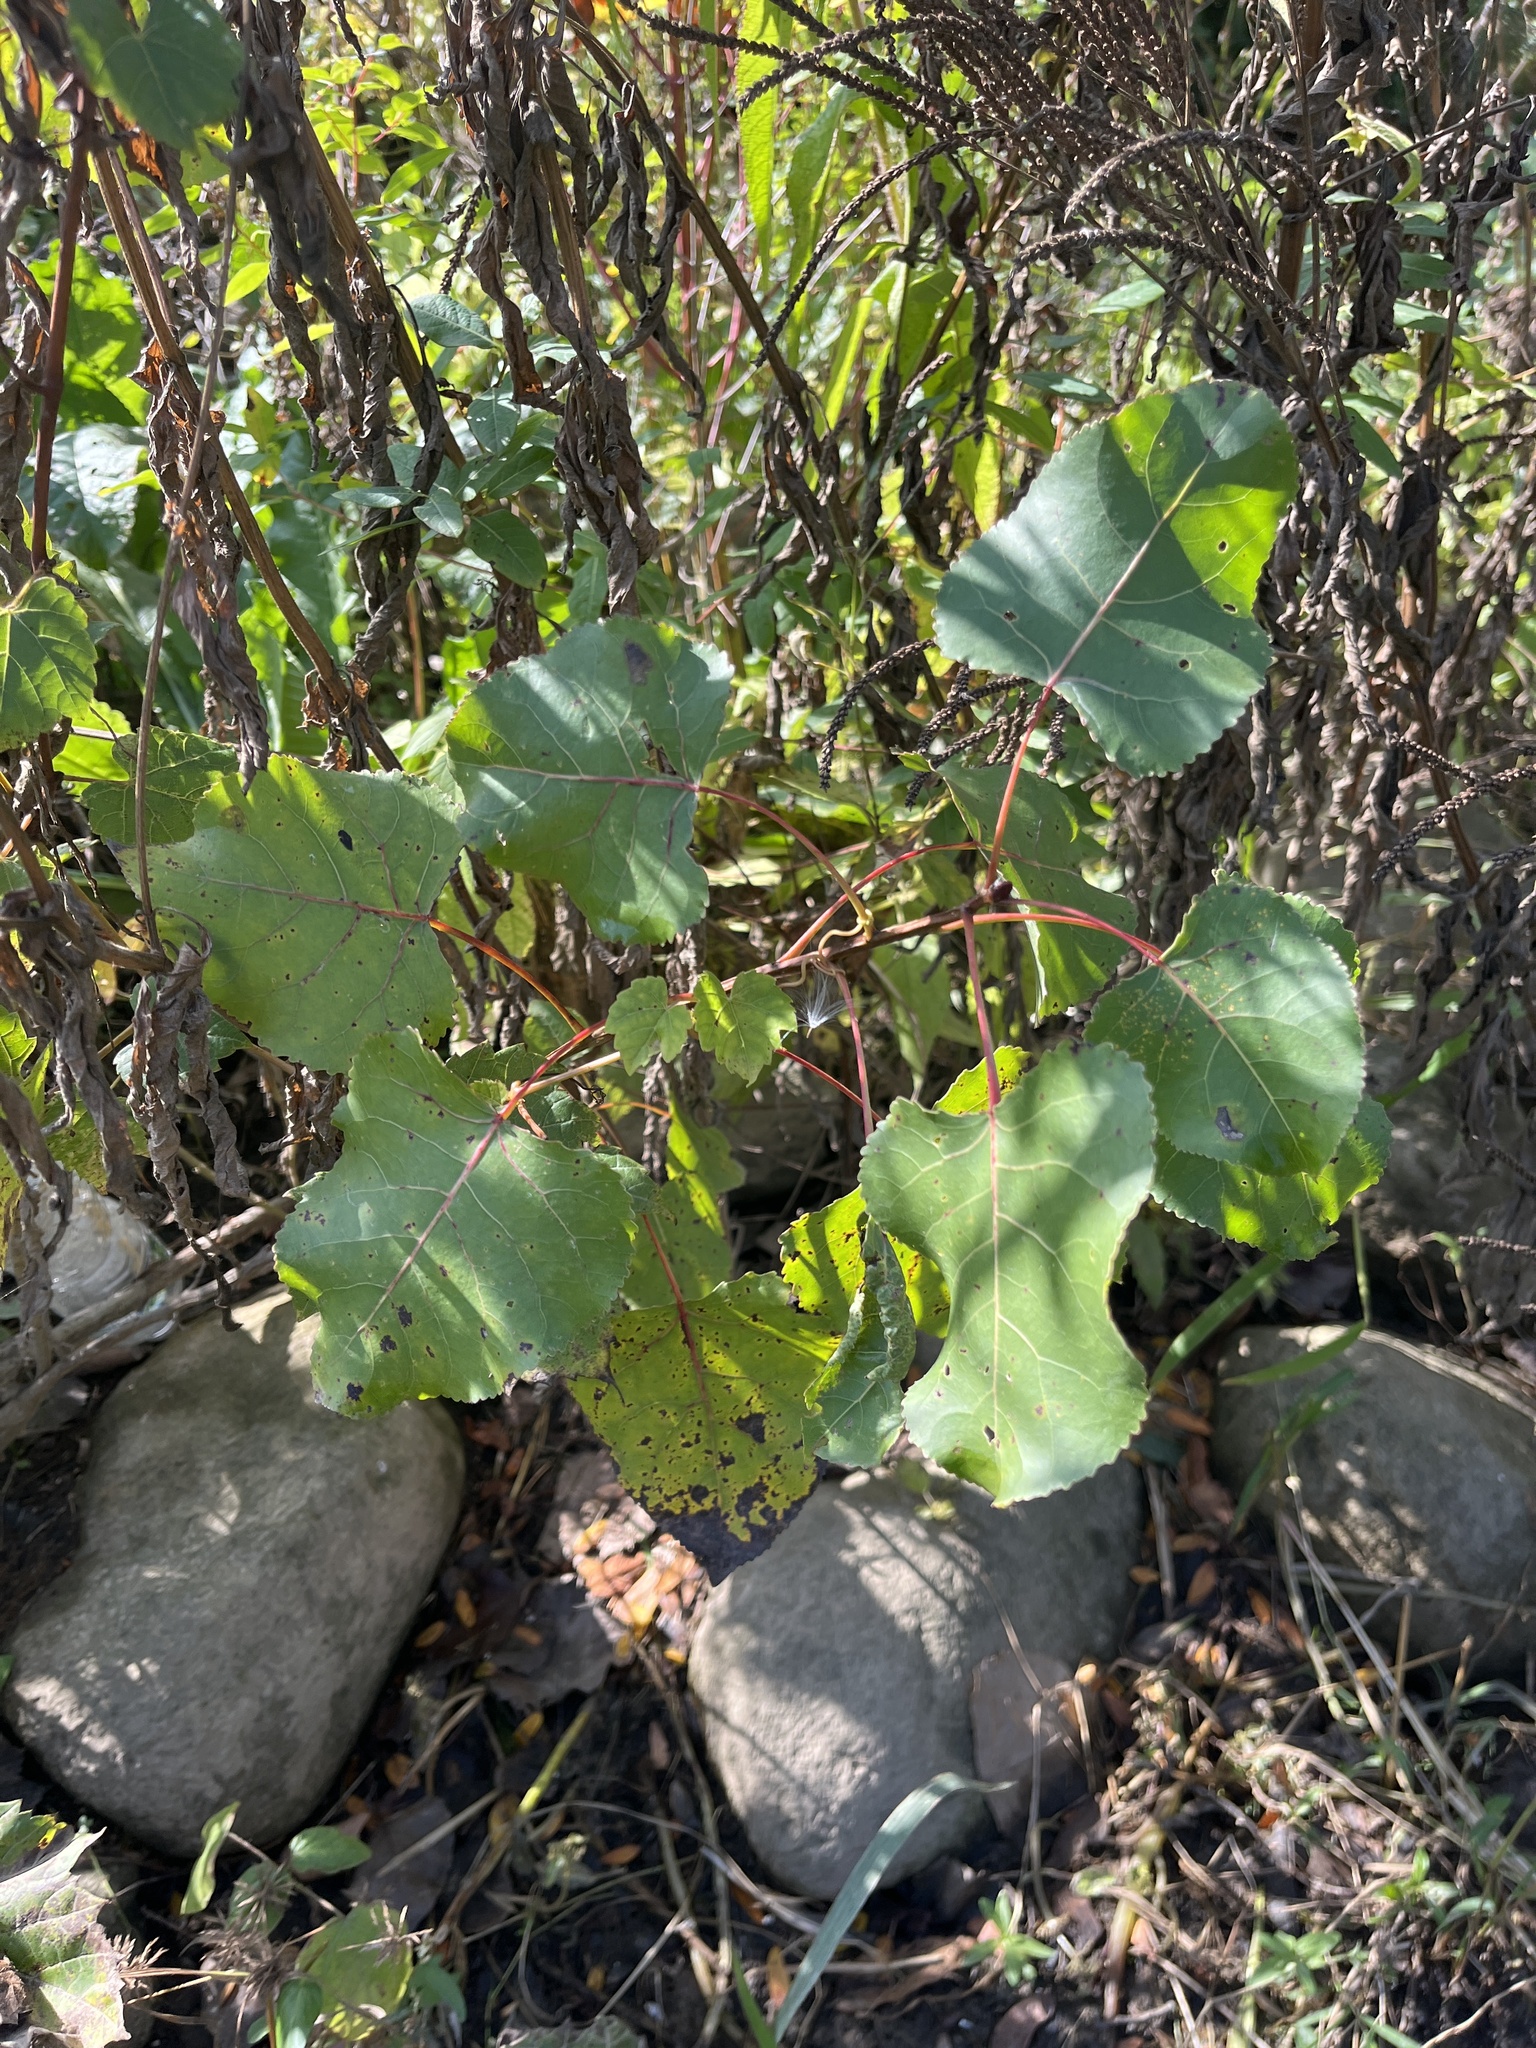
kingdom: Plantae
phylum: Tracheophyta
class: Magnoliopsida
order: Malpighiales
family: Salicaceae
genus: Populus
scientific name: Populus deltoides
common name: Eastern cottonwood
